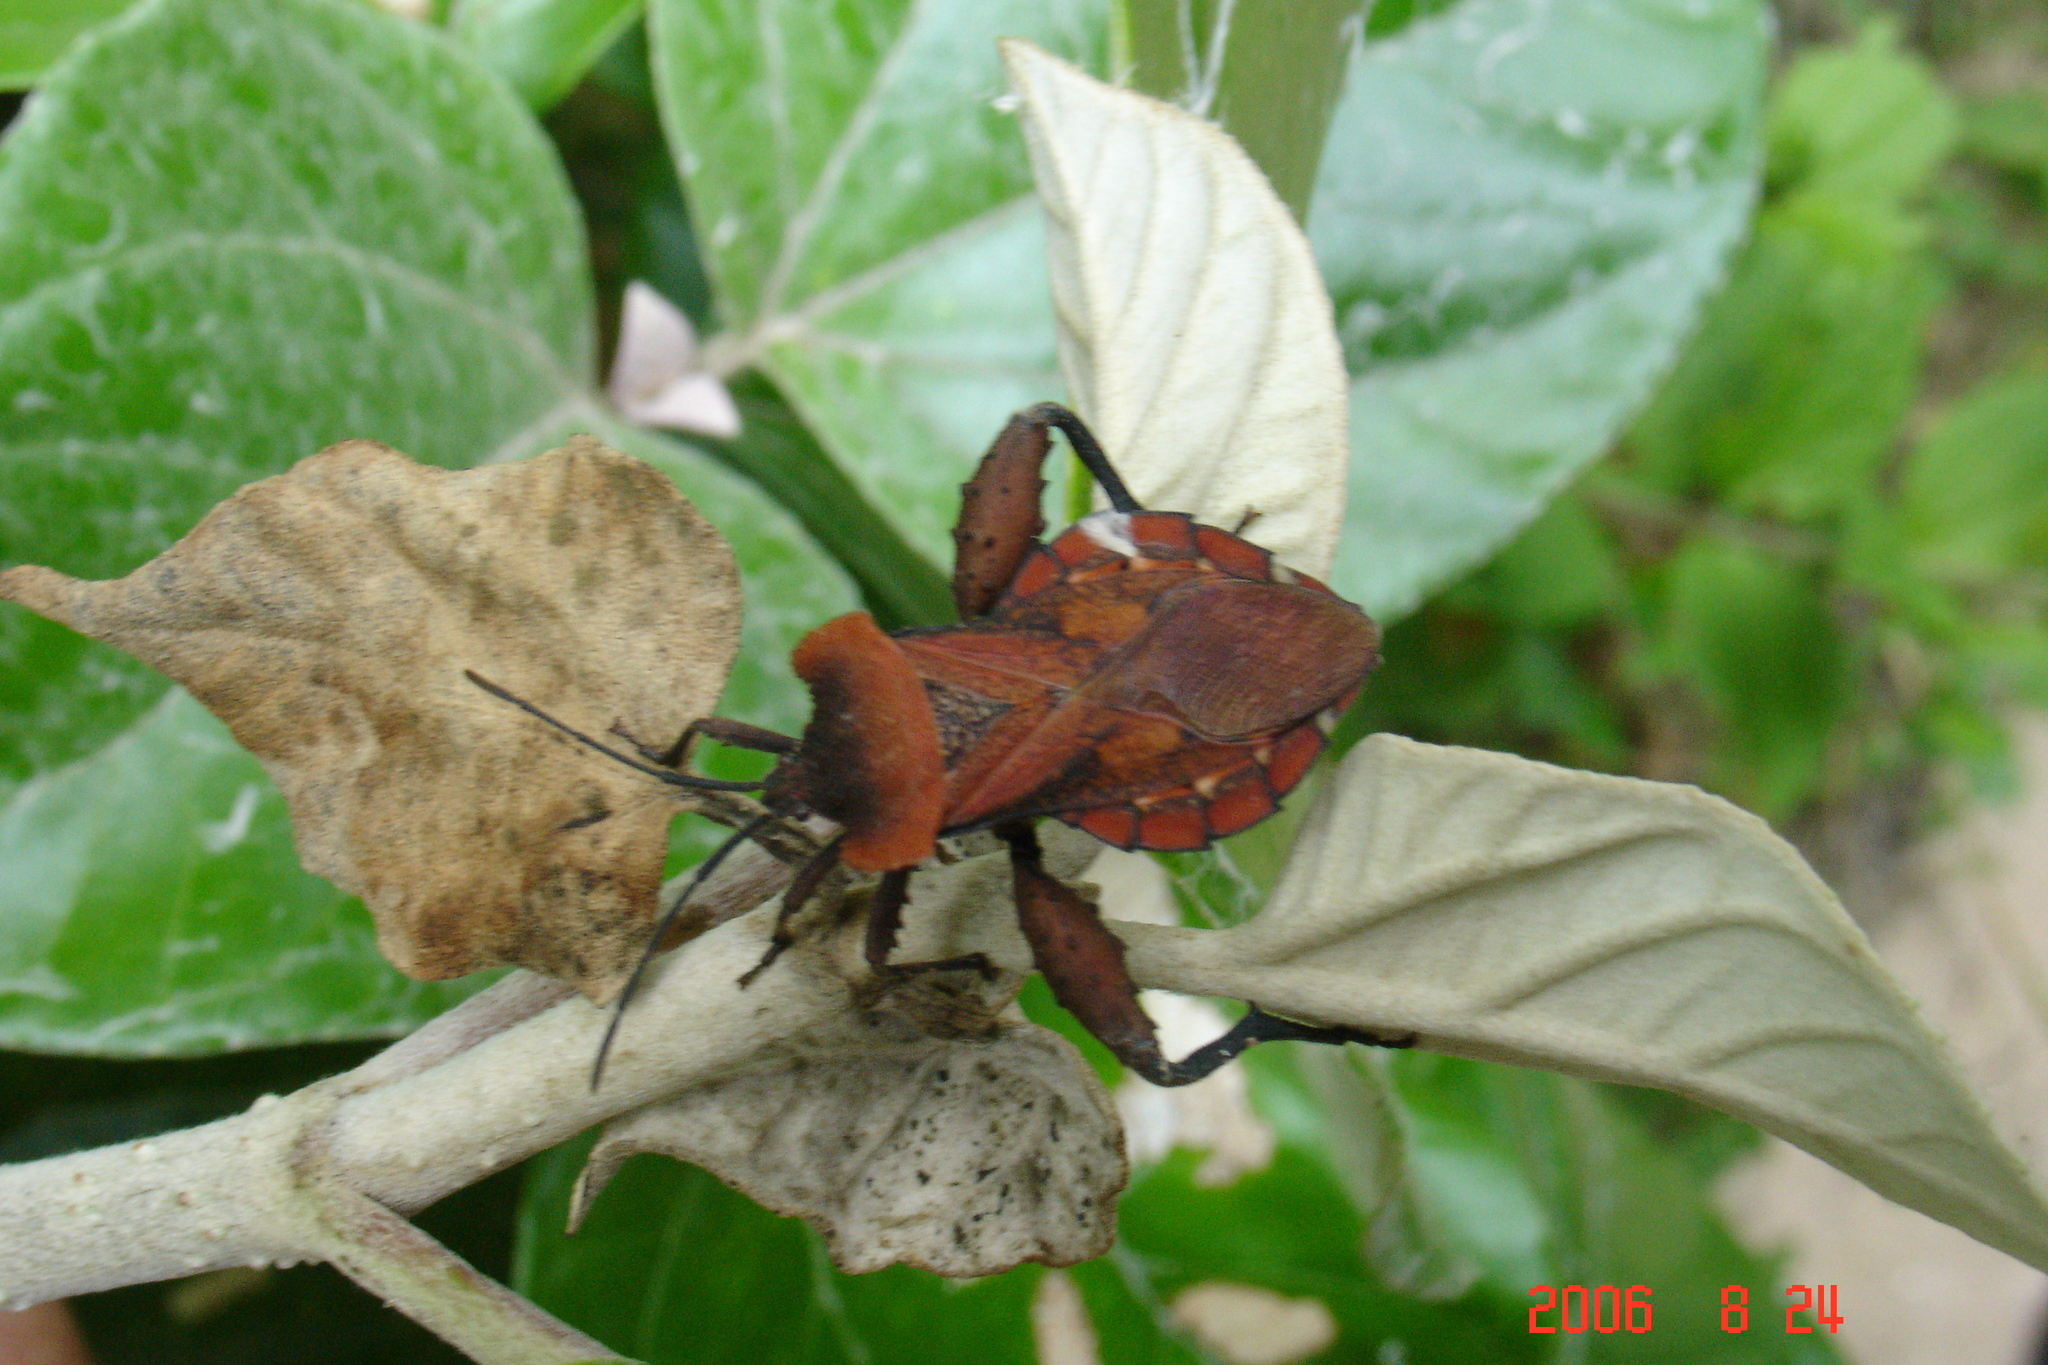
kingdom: Animalia
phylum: Arthropoda
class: Insecta
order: Hemiptera
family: Coreidae
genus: Piezogaster
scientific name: Piezogaster auriculatus
